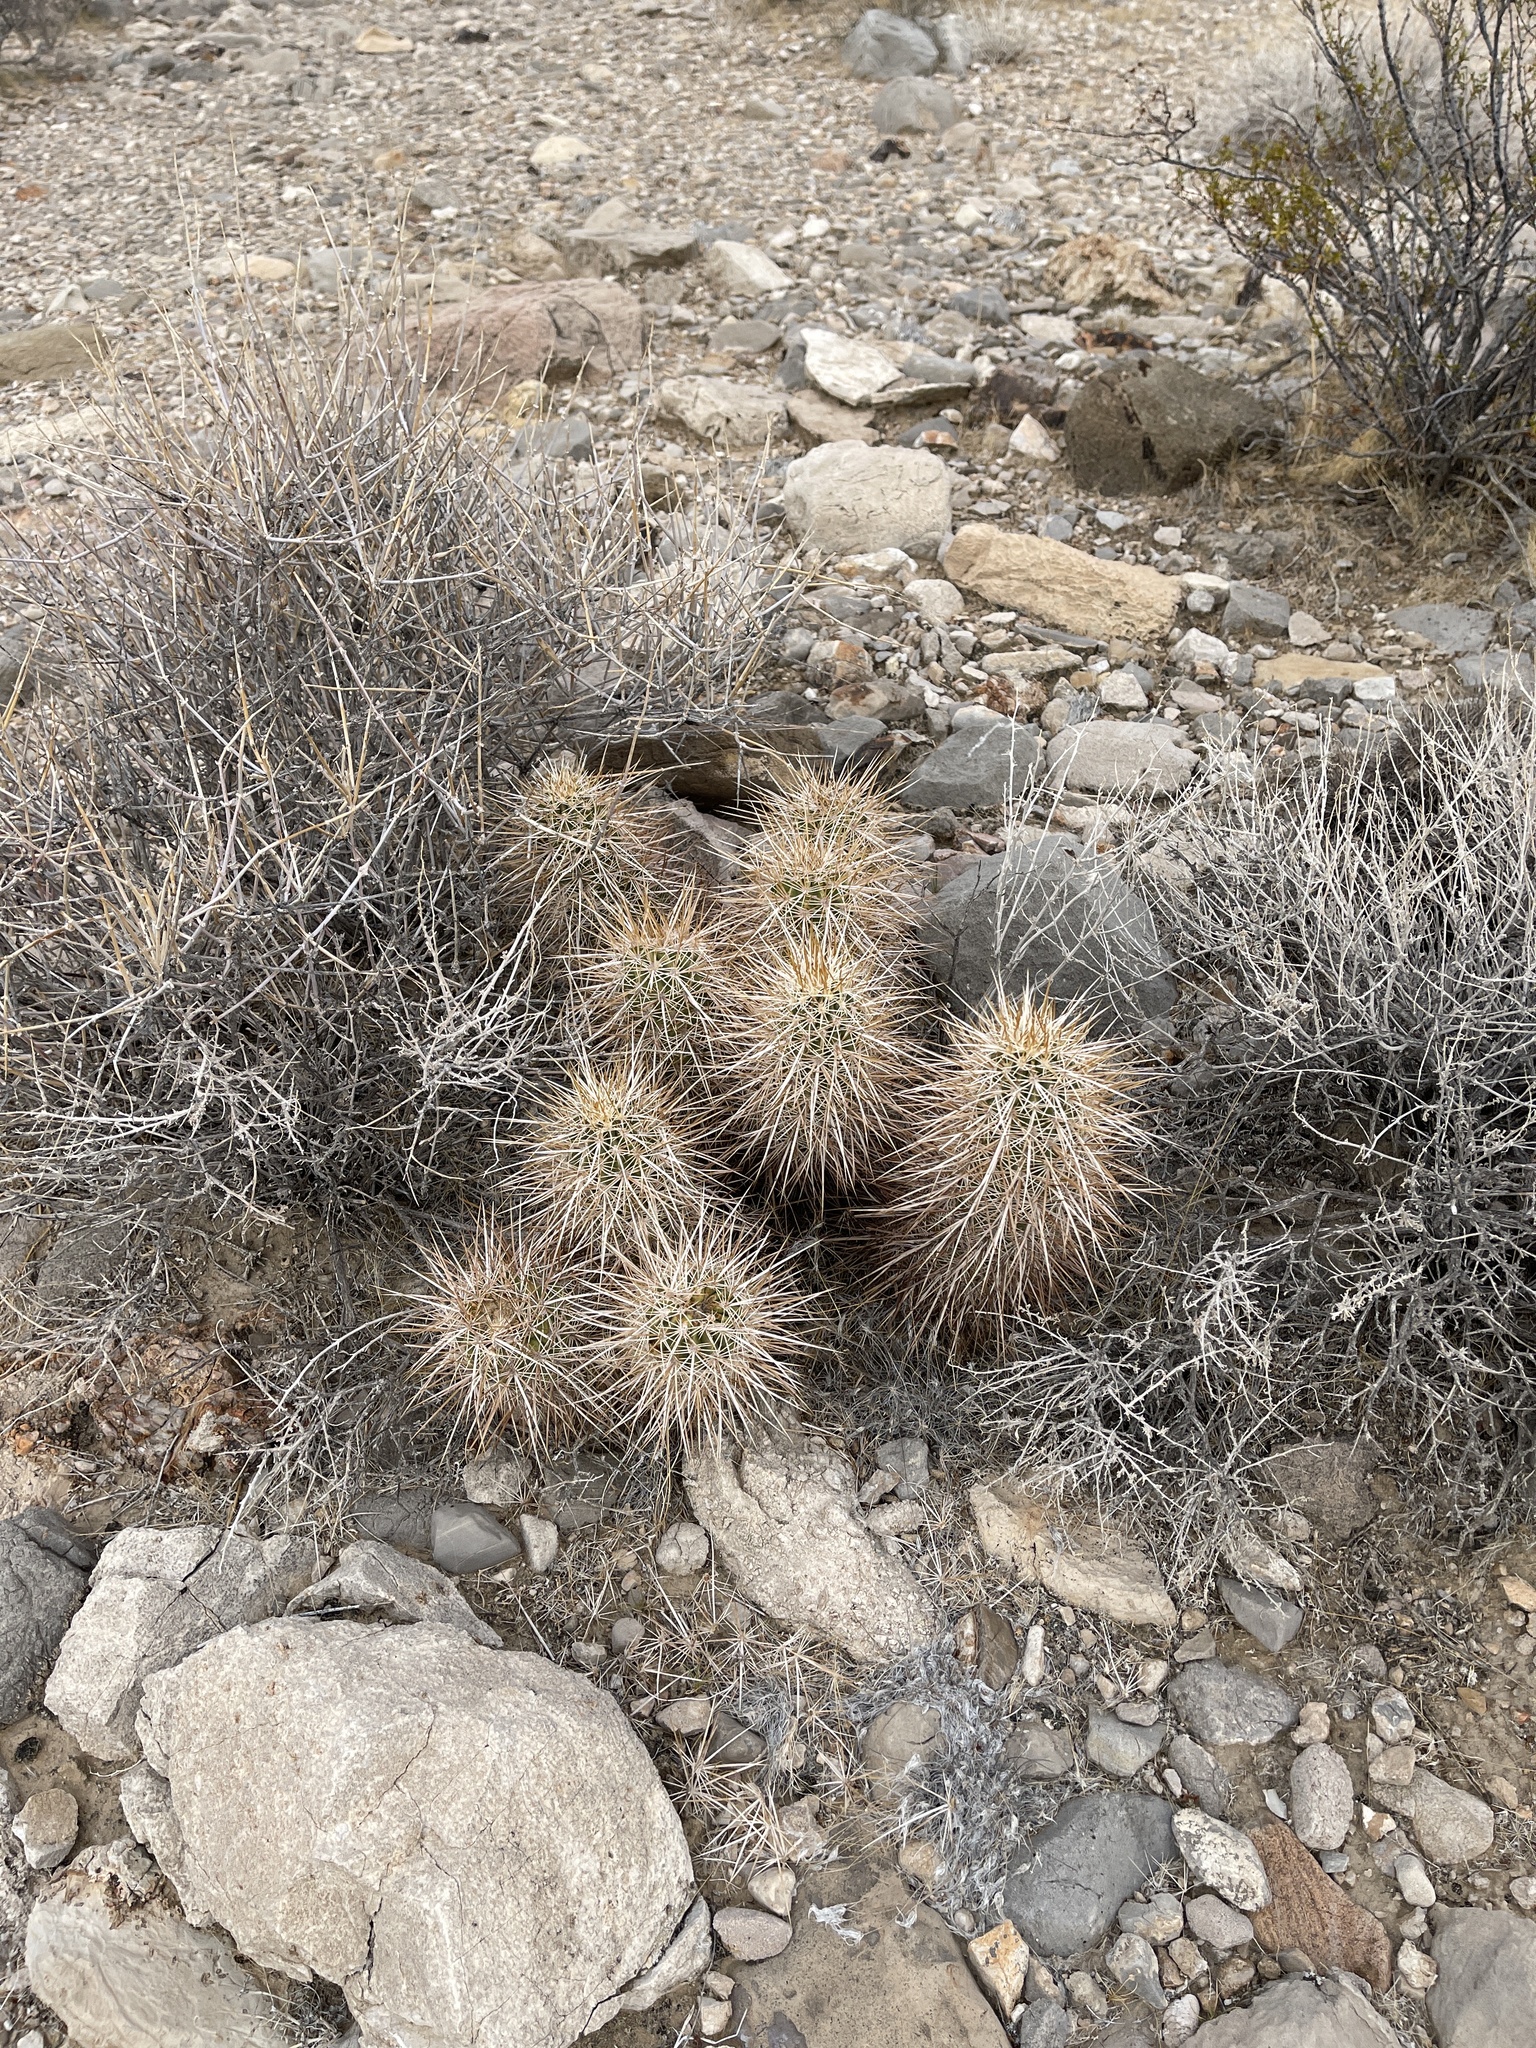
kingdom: Plantae
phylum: Tracheophyta
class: Magnoliopsida
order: Caryophyllales
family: Cactaceae
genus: Echinocereus
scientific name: Echinocereus engelmannii
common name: Engelmann's hedgehog cactus
